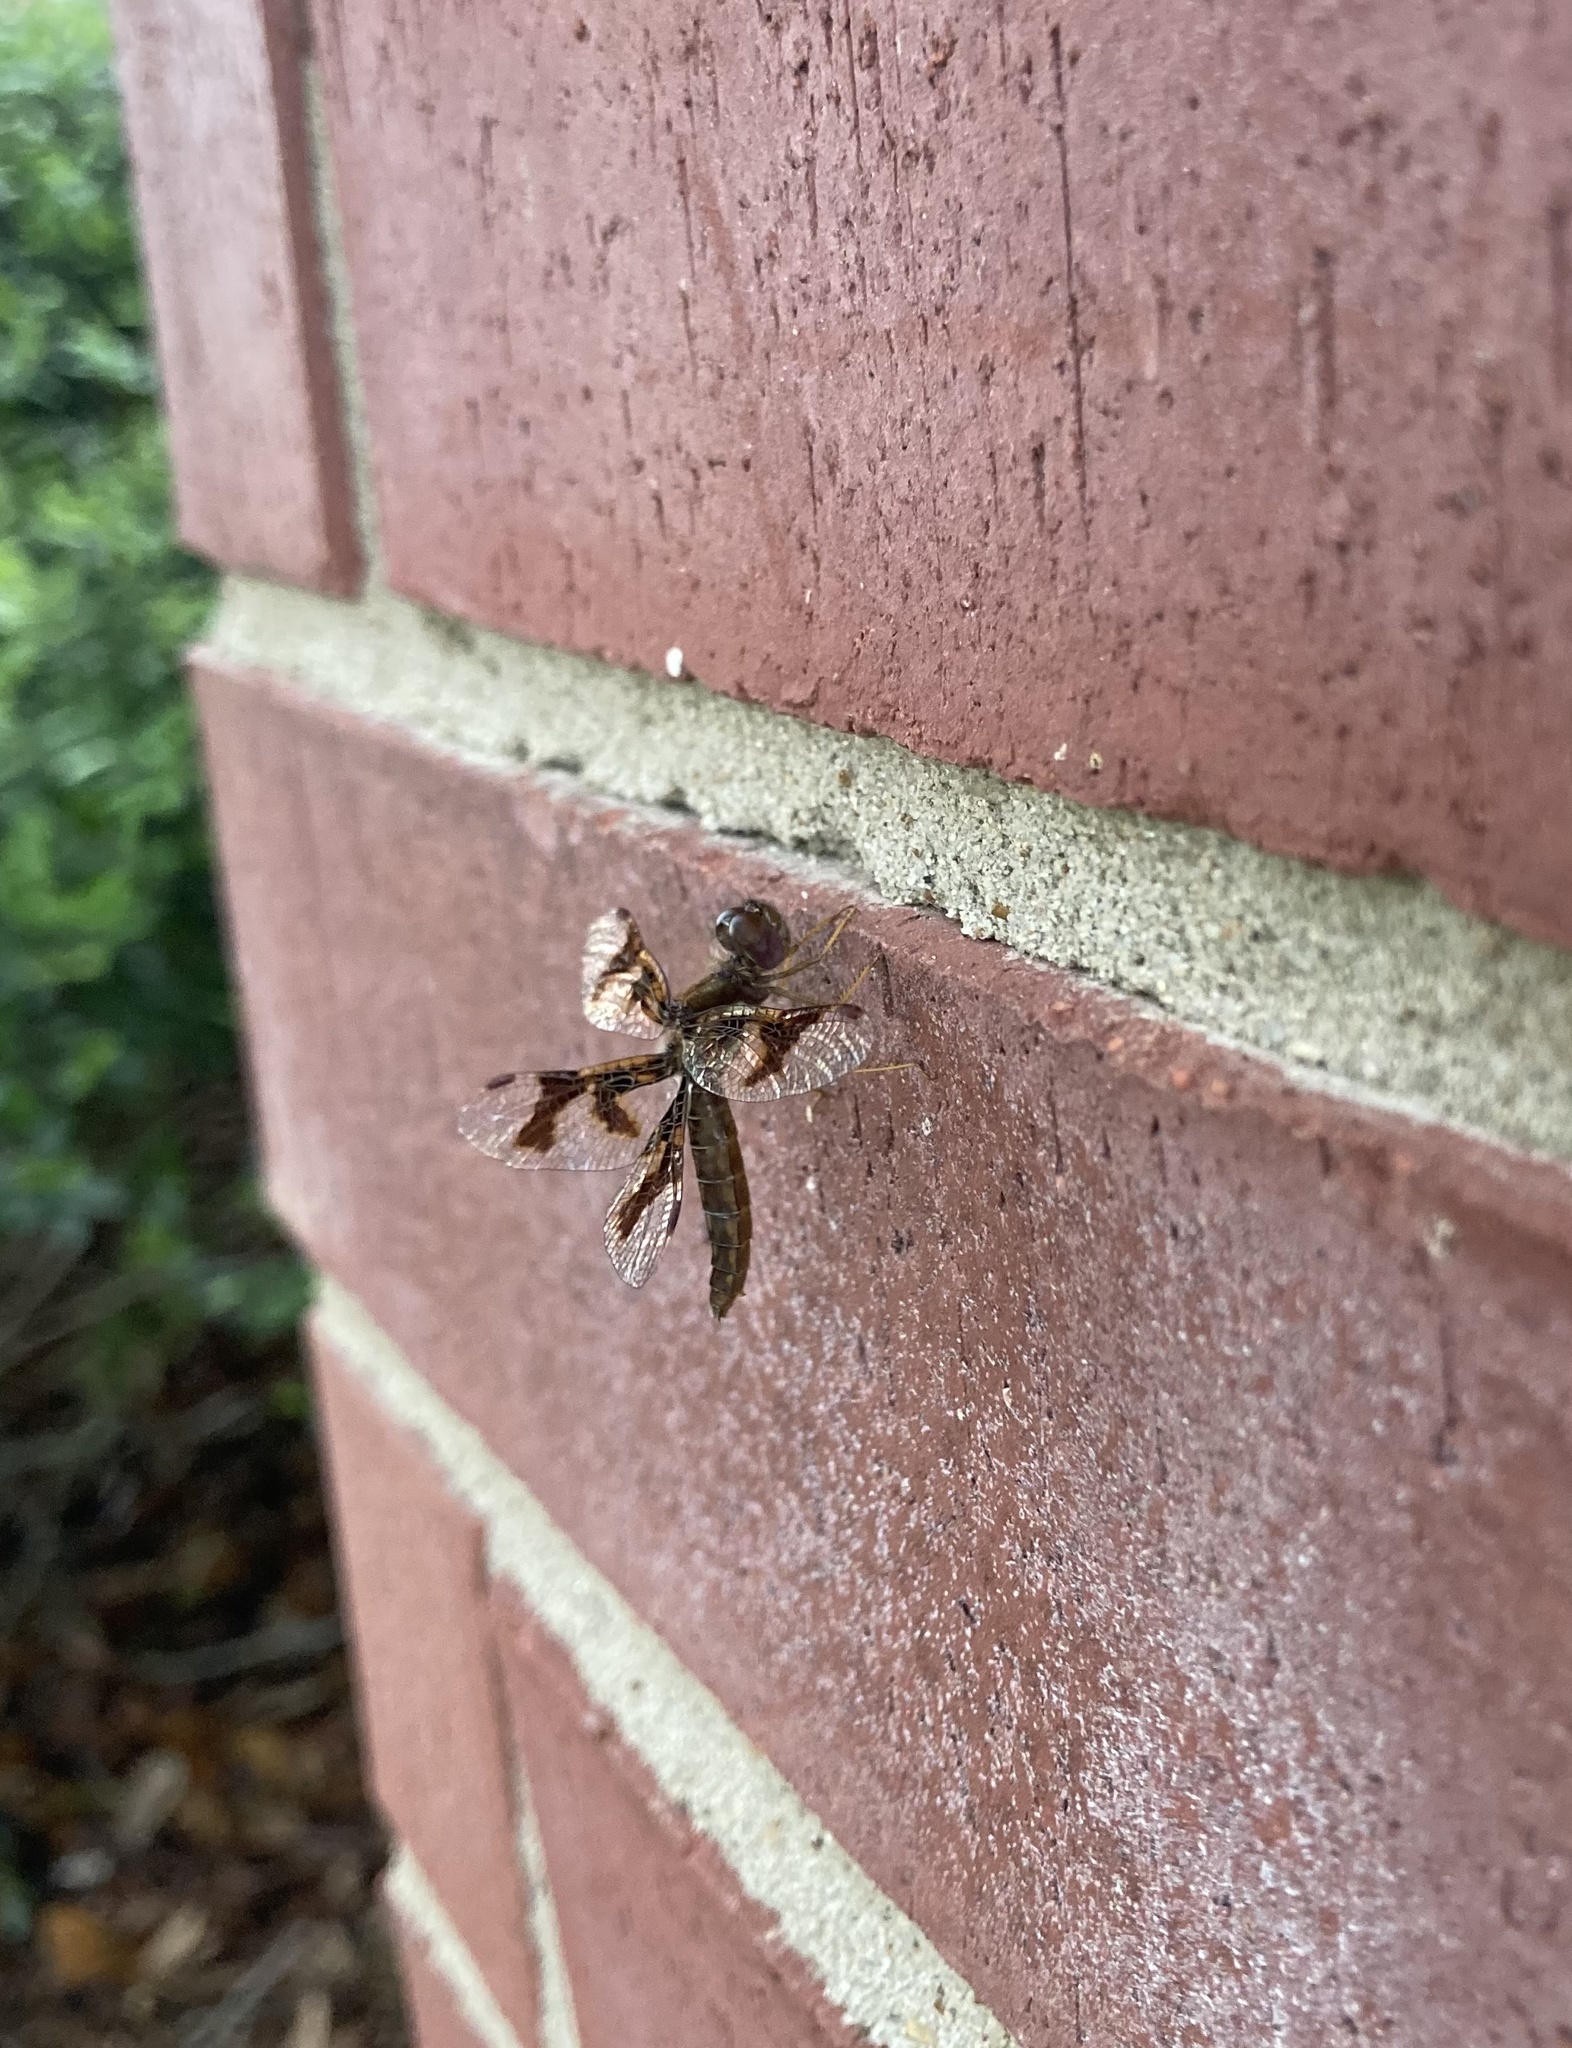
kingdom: Animalia
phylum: Arthropoda
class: Insecta
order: Odonata
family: Libellulidae
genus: Perithemis
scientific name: Perithemis tenera
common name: Eastern amberwing
